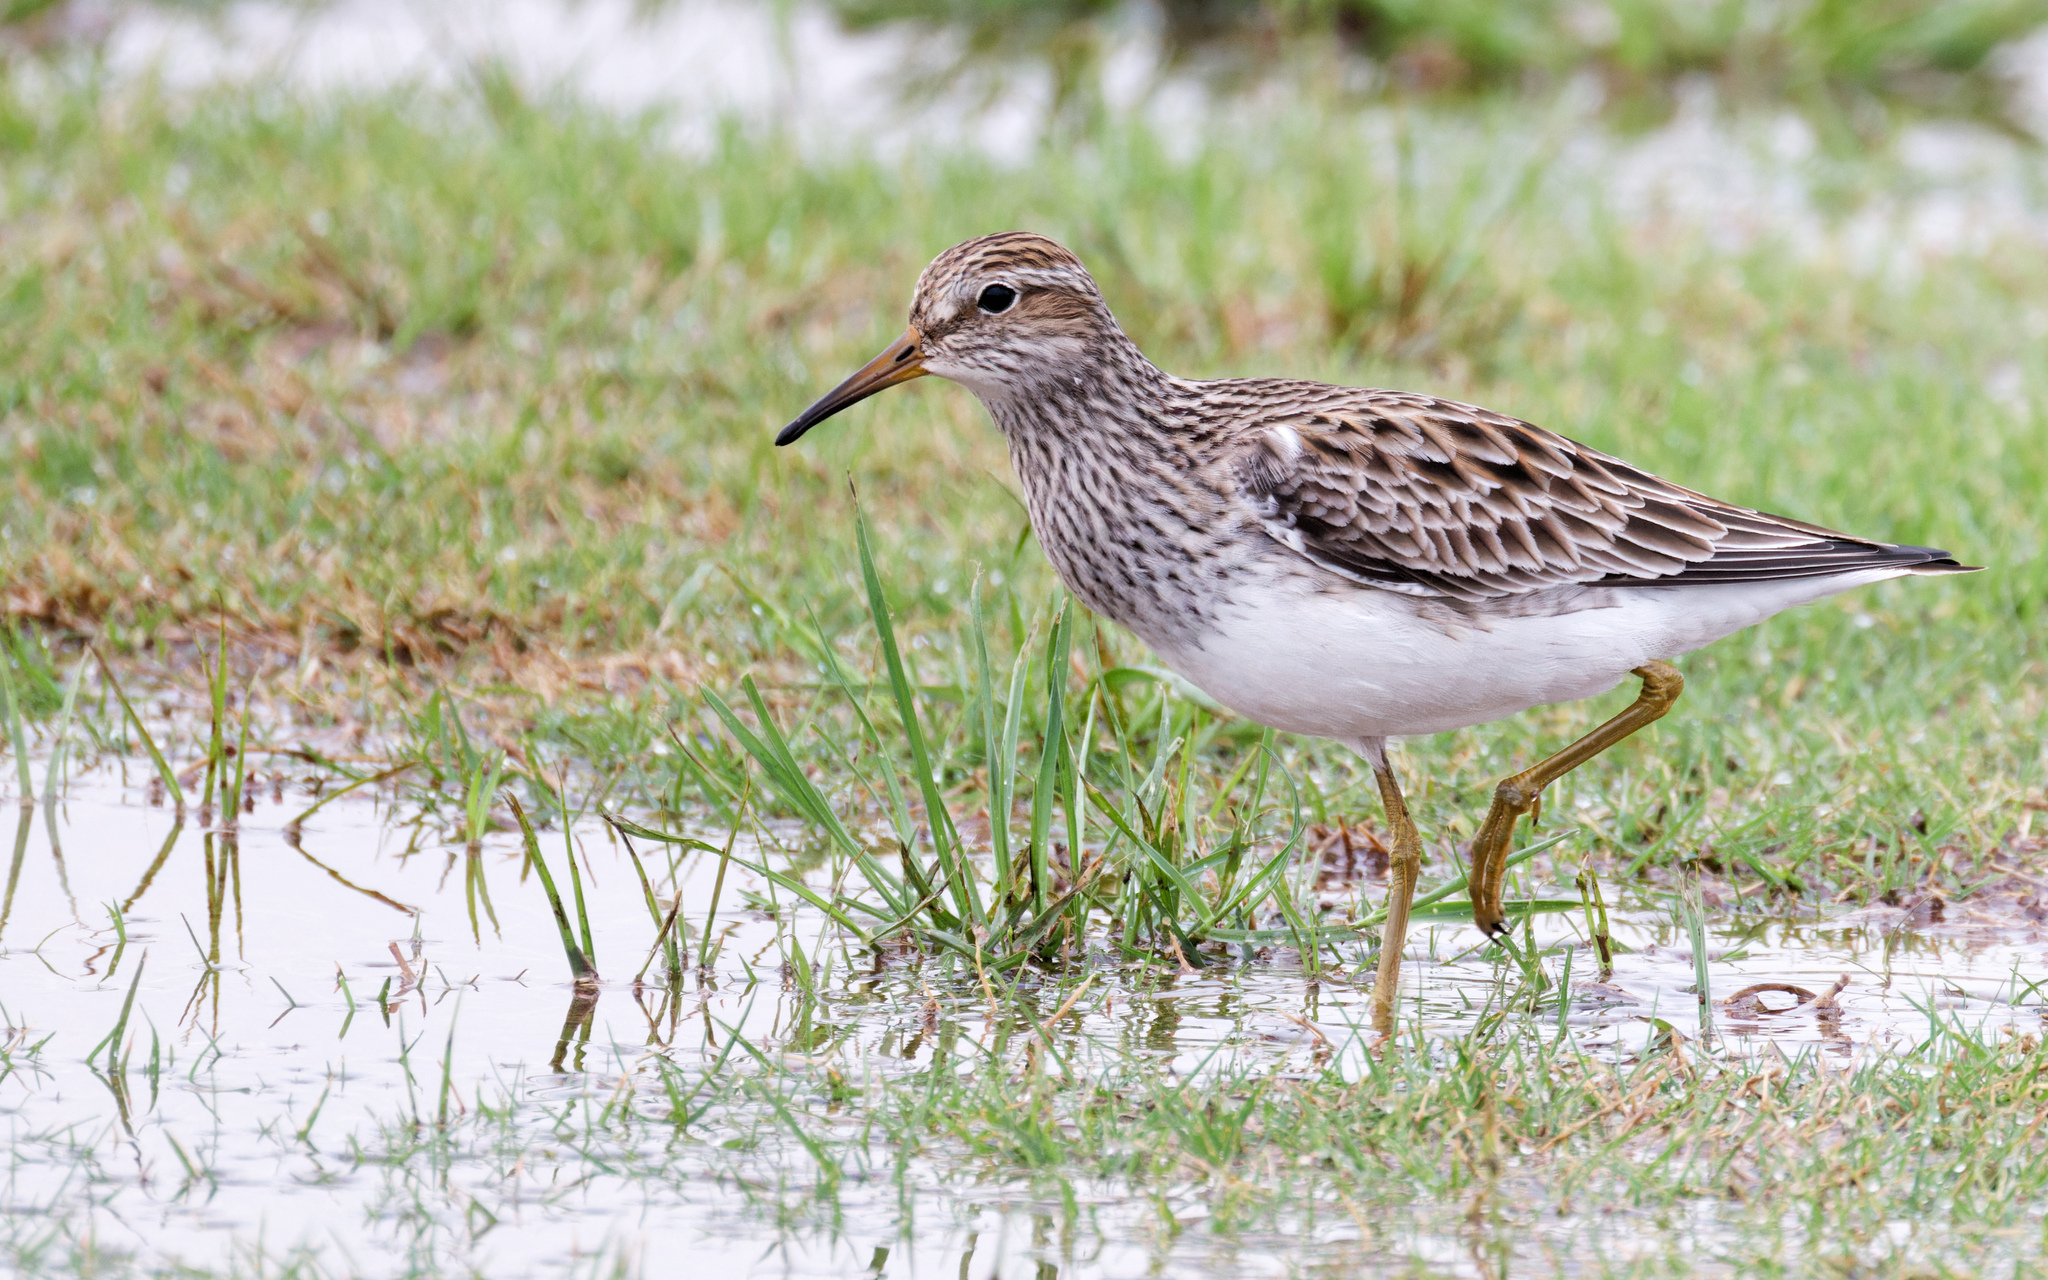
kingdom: Animalia
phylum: Chordata
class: Aves
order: Charadriiformes
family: Scolopacidae
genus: Calidris
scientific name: Calidris melanotos
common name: Pectoral sandpiper
